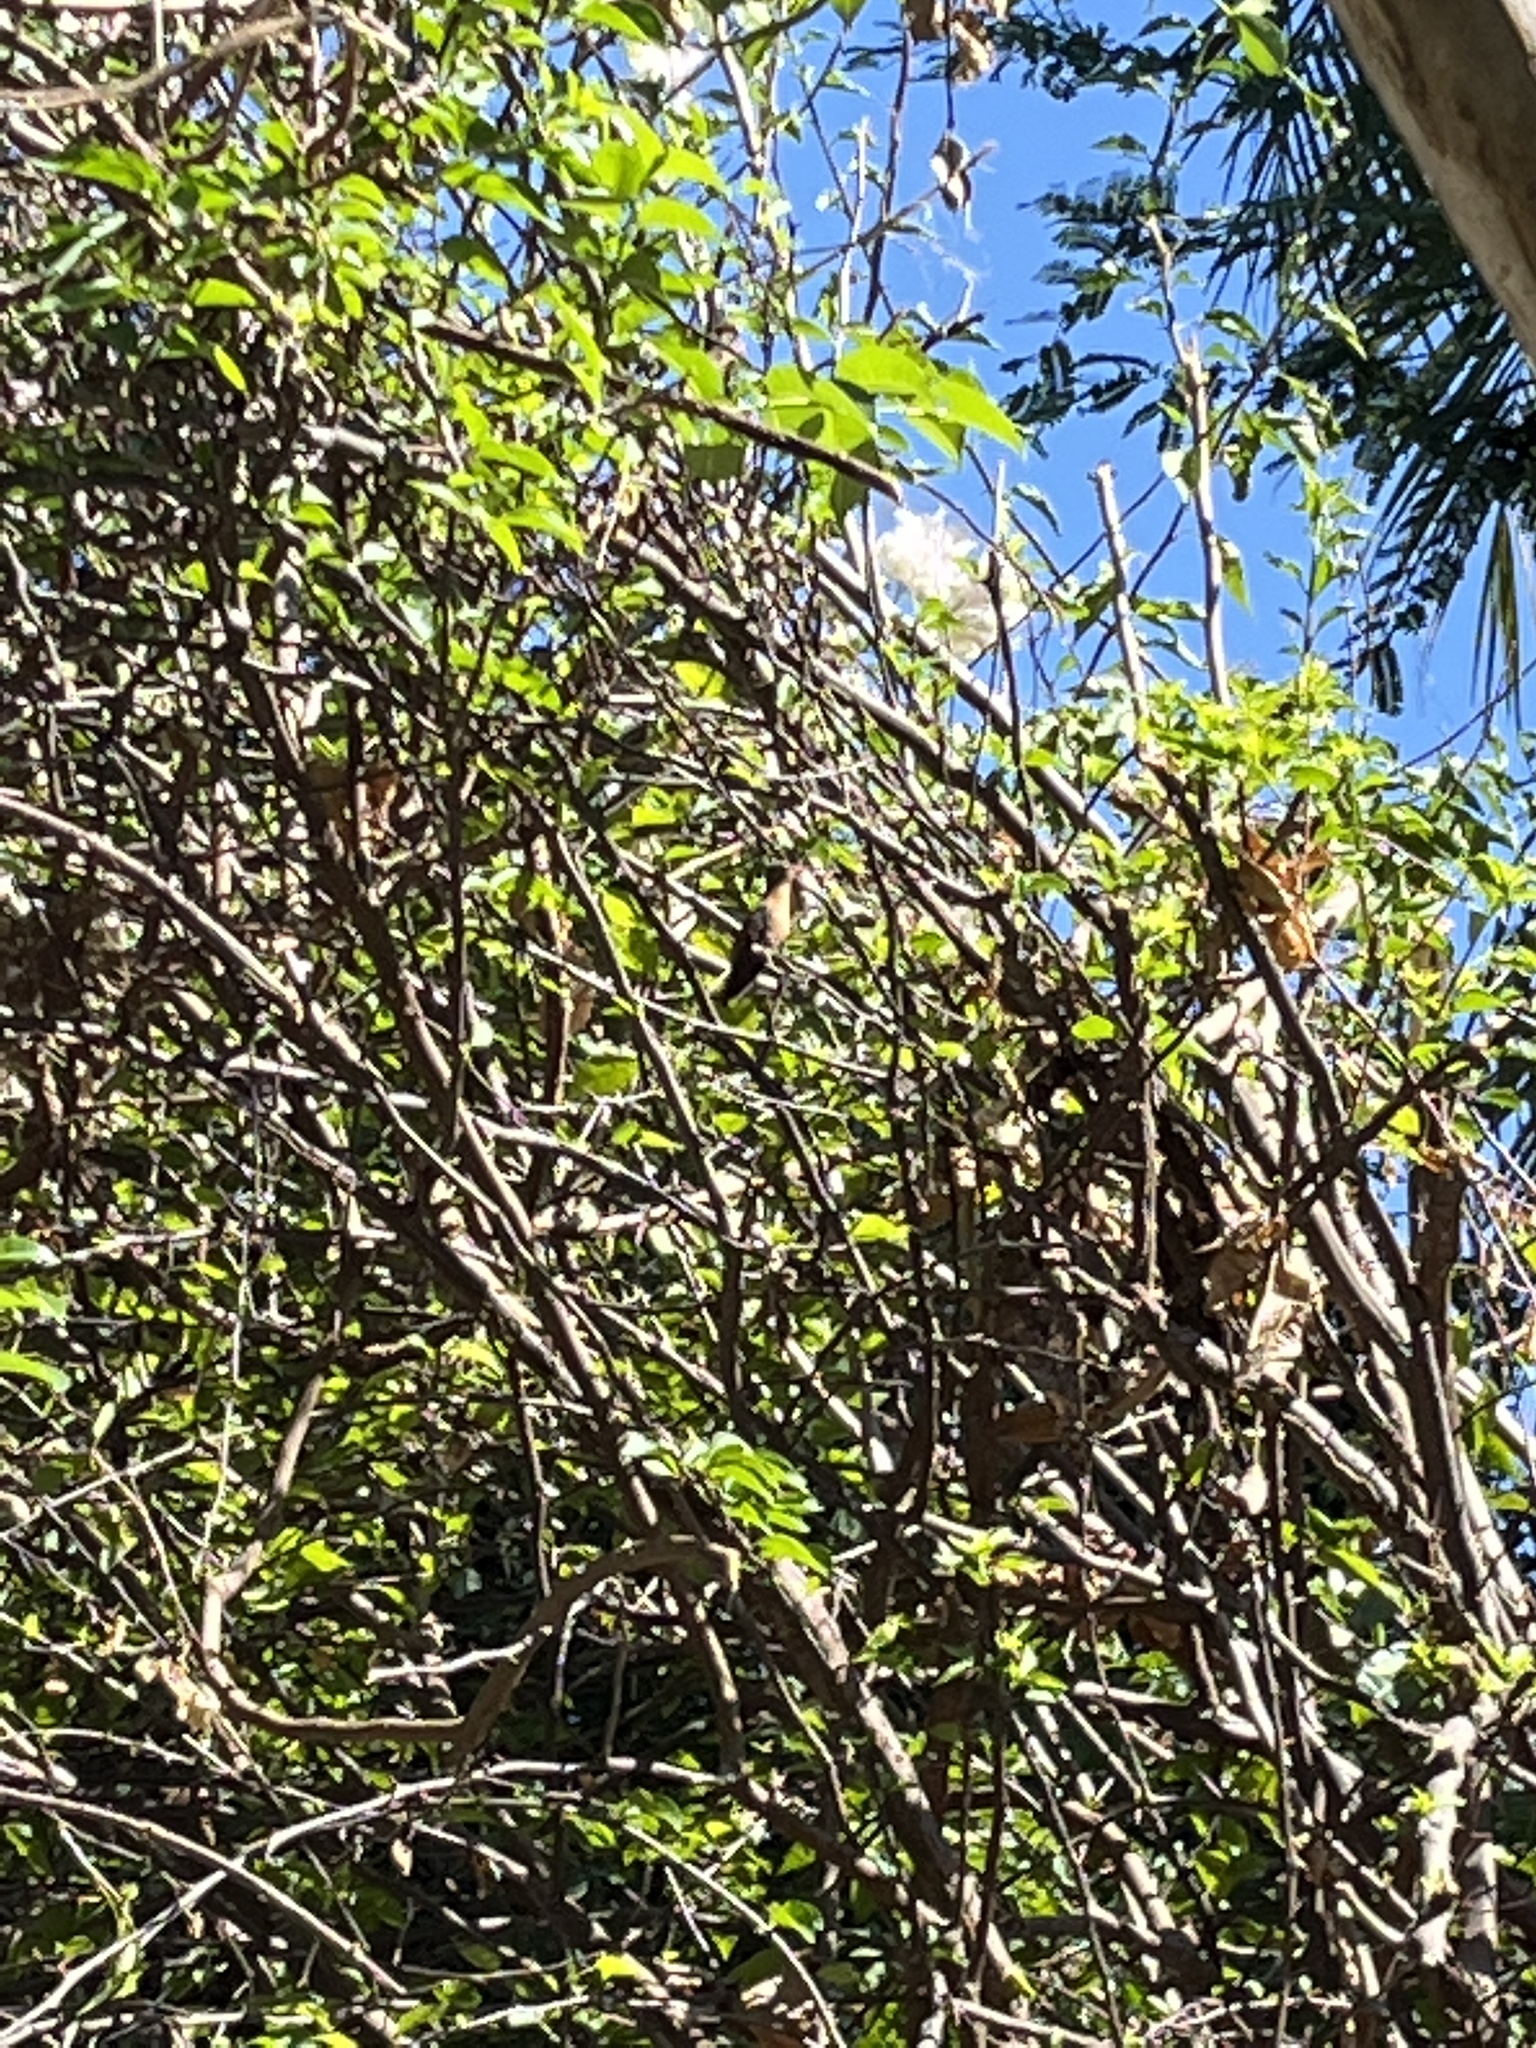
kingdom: Animalia
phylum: Chordata
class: Aves
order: Apodiformes
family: Trochilidae
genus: Amazilia
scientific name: Amazilia rutila
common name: Cinnamon hummingbird
